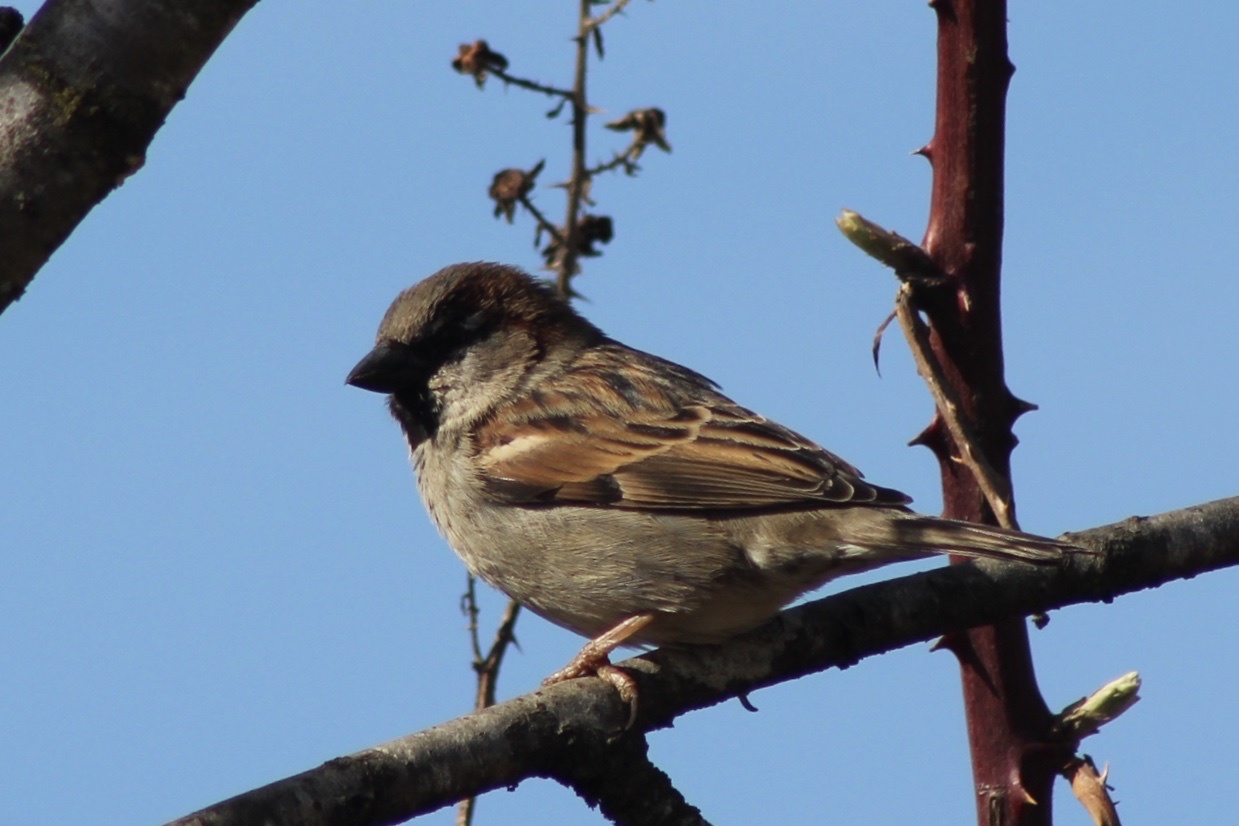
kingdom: Animalia
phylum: Chordata
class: Aves
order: Passeriformes
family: Passeridae
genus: Passer
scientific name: Passer domesticus
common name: House sparrow
